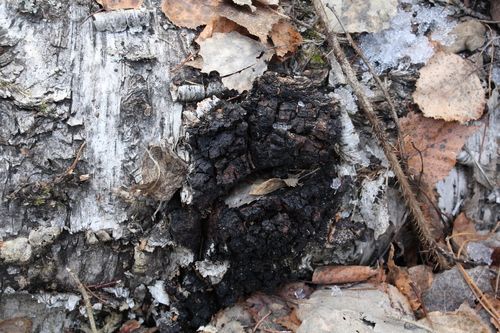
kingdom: Fungi
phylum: Basidiomycota
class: Agaricomycetes
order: Hymenochaetales
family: Hymenochaetaceae
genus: Inonotus
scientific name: Inonotus obliquus
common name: Chaga
